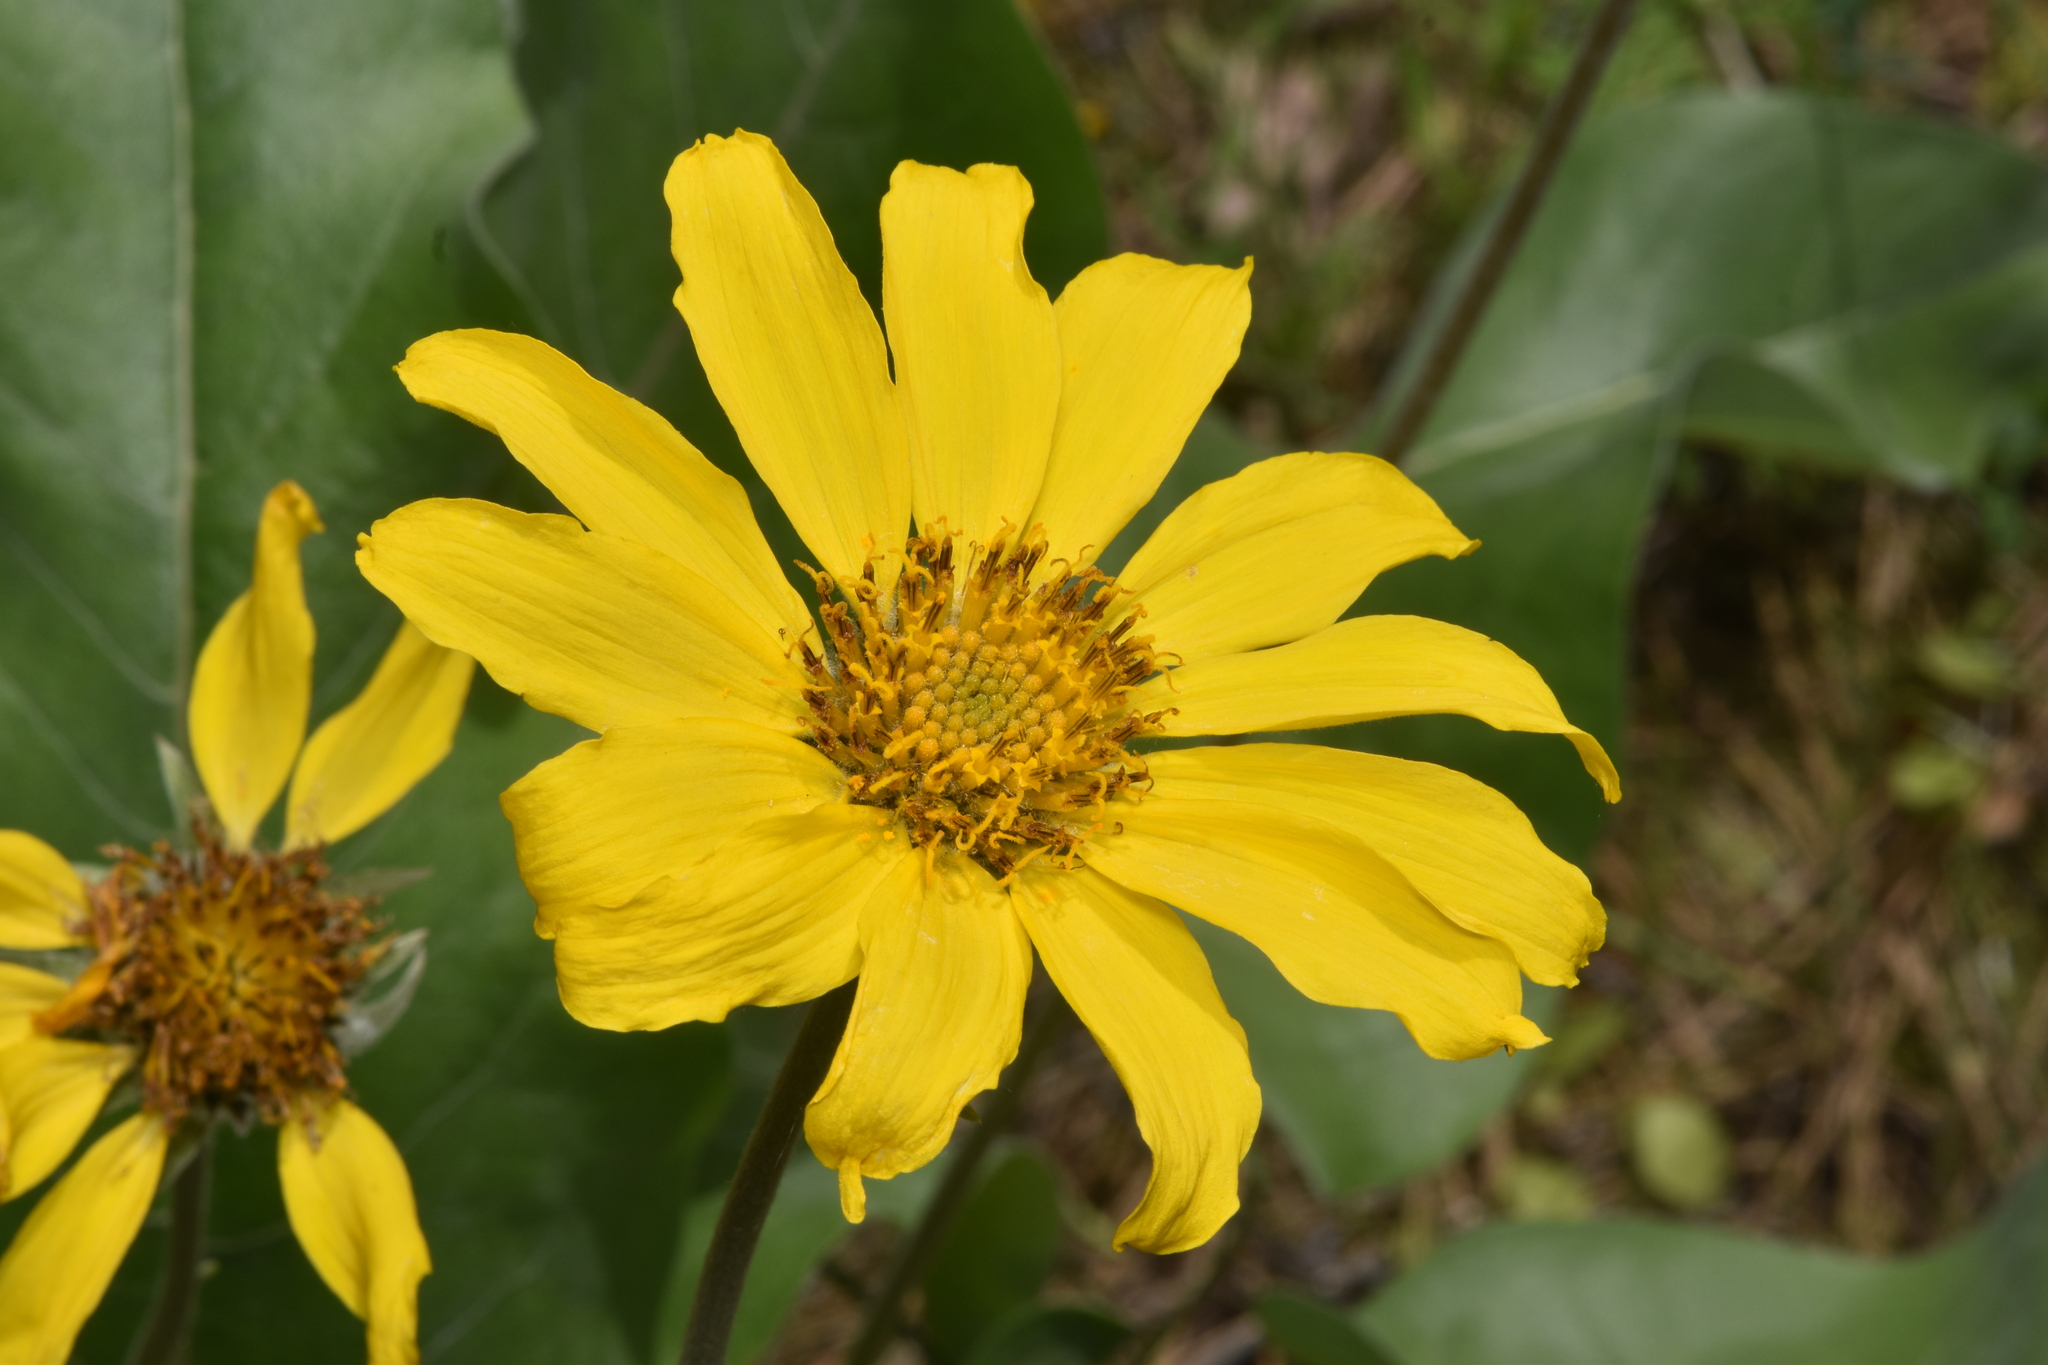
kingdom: Plantae
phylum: Tracheophyta
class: Magnoliopsida
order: Asterales
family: Asteraceae
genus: Wyethia
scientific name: Wyethia sagittata
